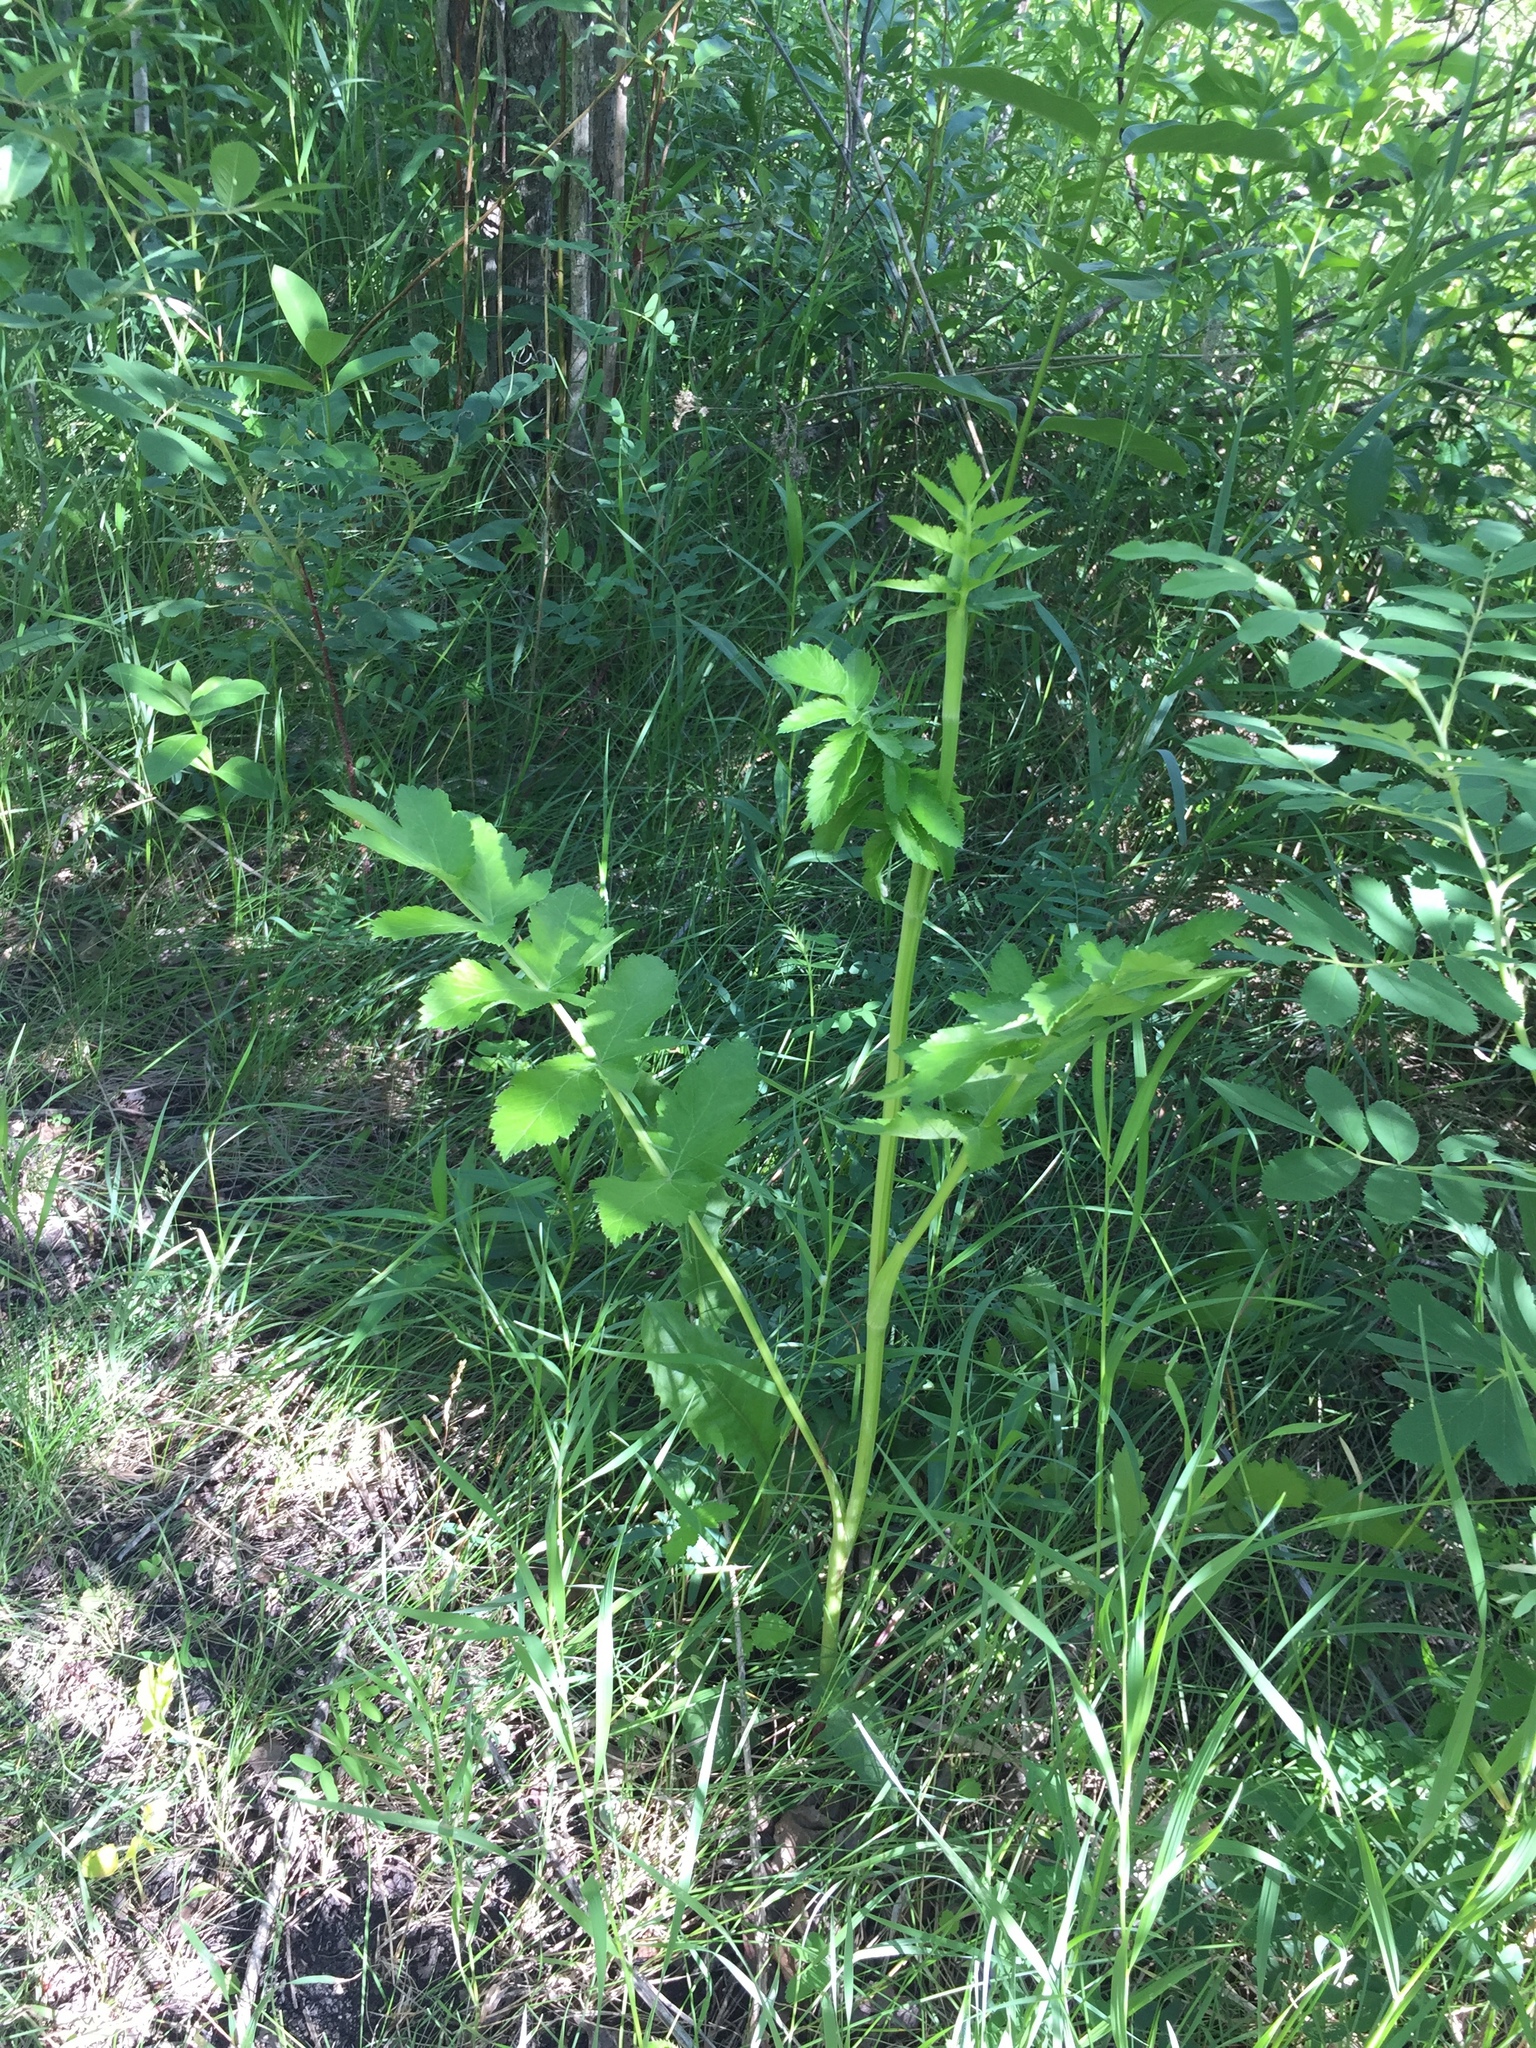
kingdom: Plantae
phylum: Tracheophyta
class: Magnoliopsida
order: Apiales
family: Apiaceae
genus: Pastinaca
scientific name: Pastinaca sativa
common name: Wild parsnip
